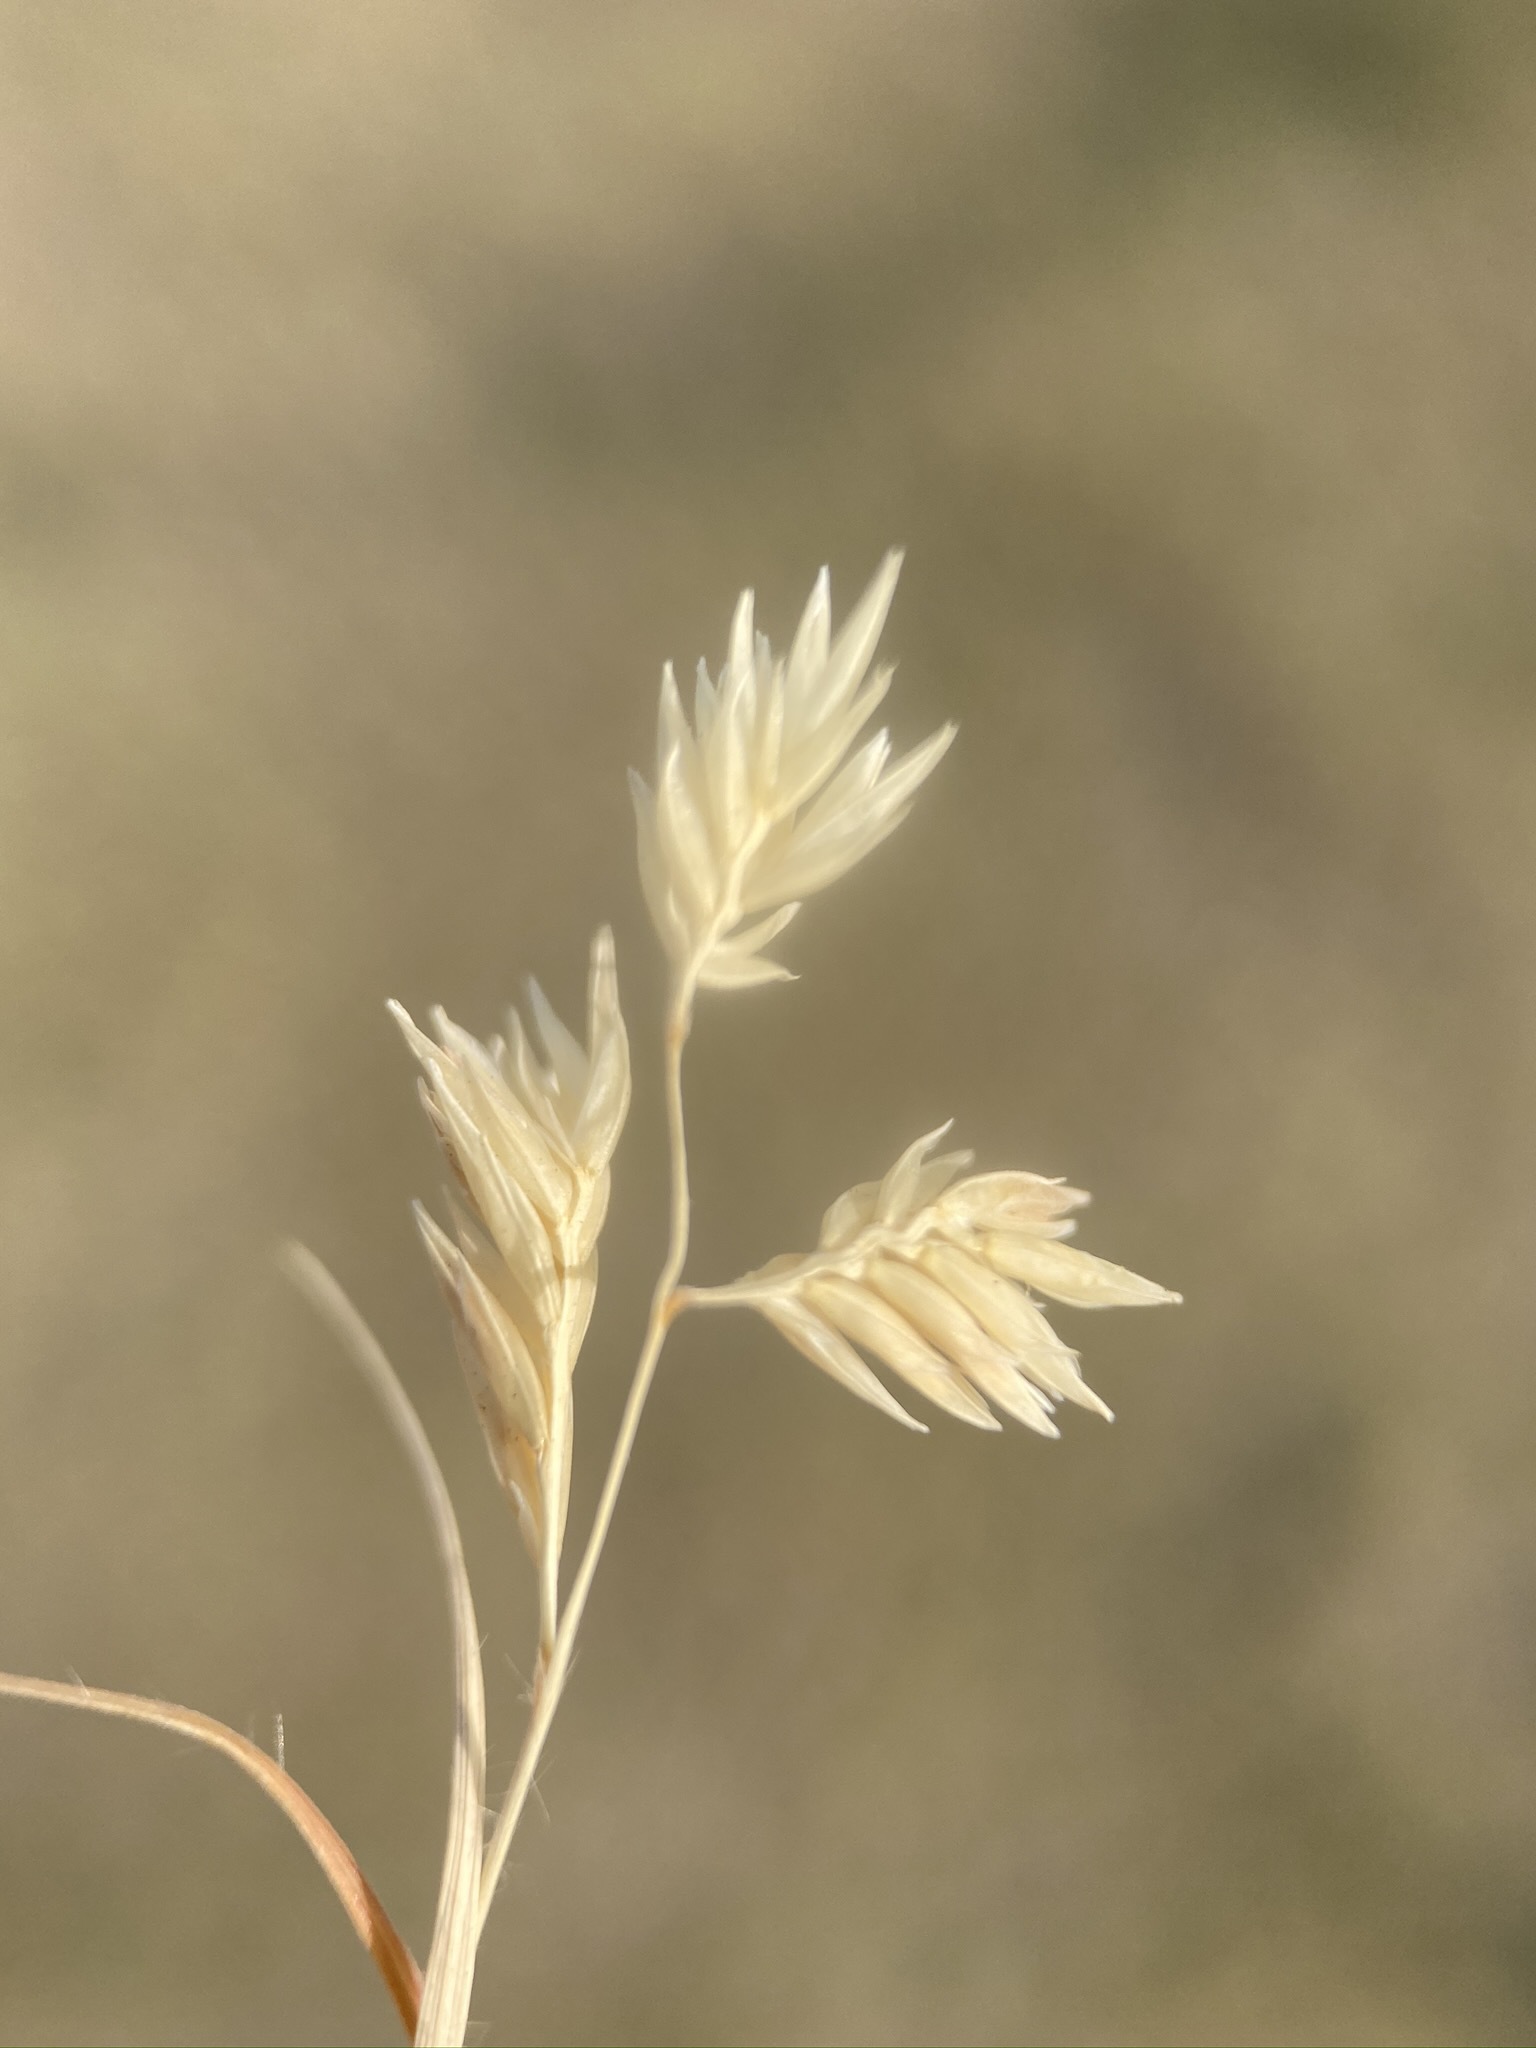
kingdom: Plantae
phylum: Tracheophyta
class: Liliopsida
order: Poales
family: Poaceae
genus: Bouteloua
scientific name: Bouteloua dactyloides
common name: Buffalo grass
